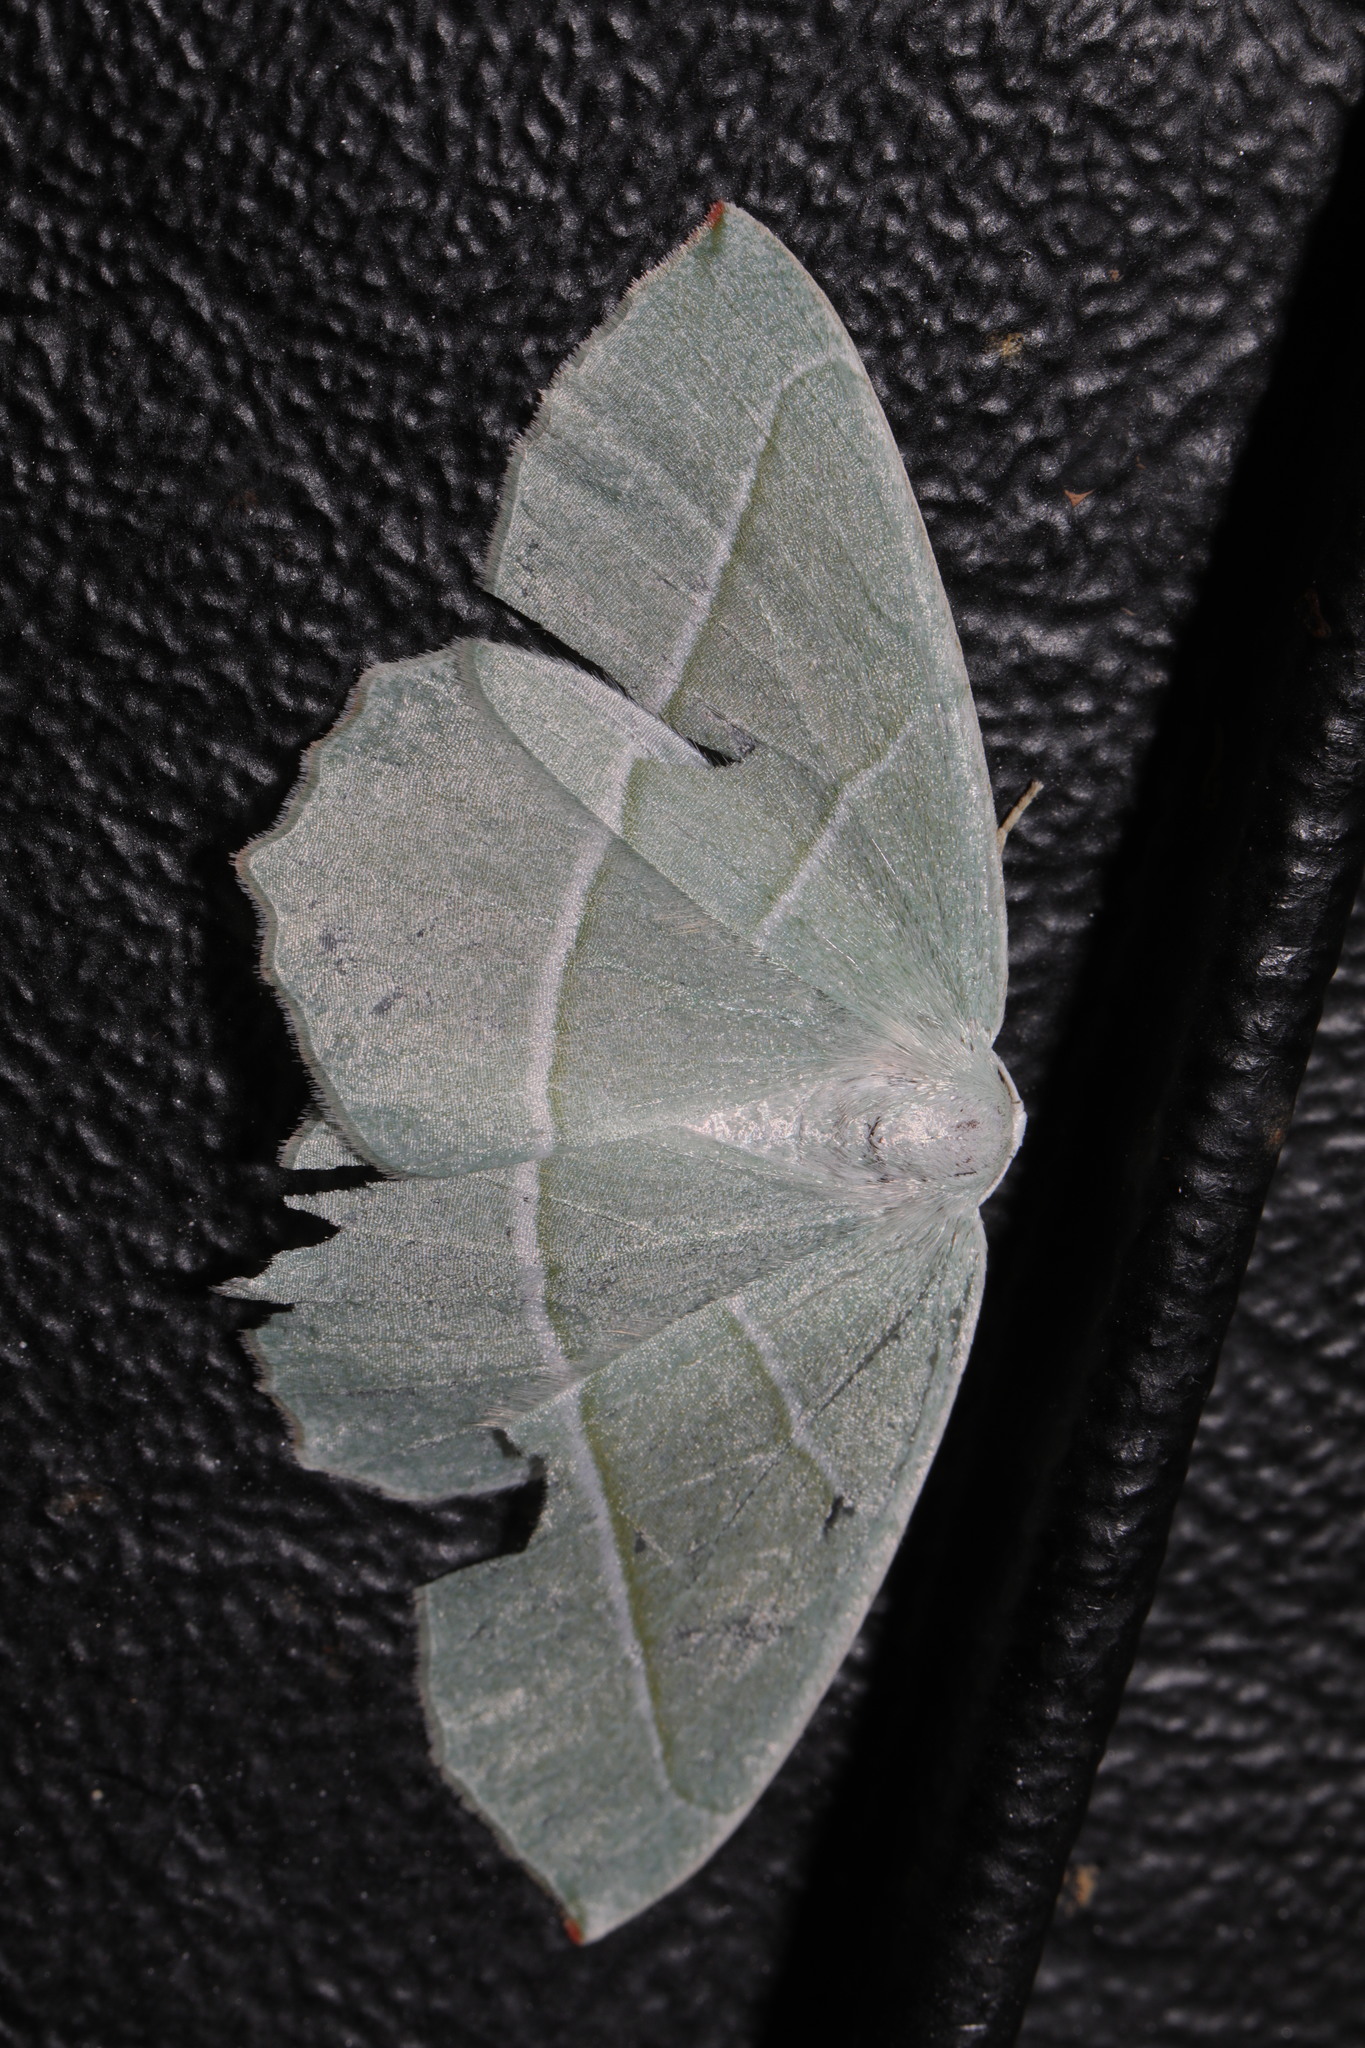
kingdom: Animalia
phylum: Arthropoda
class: Insecta
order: Lepidoptera
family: Geometridae
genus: Campaea
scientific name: Campaea margaritaria
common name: Light emerald
